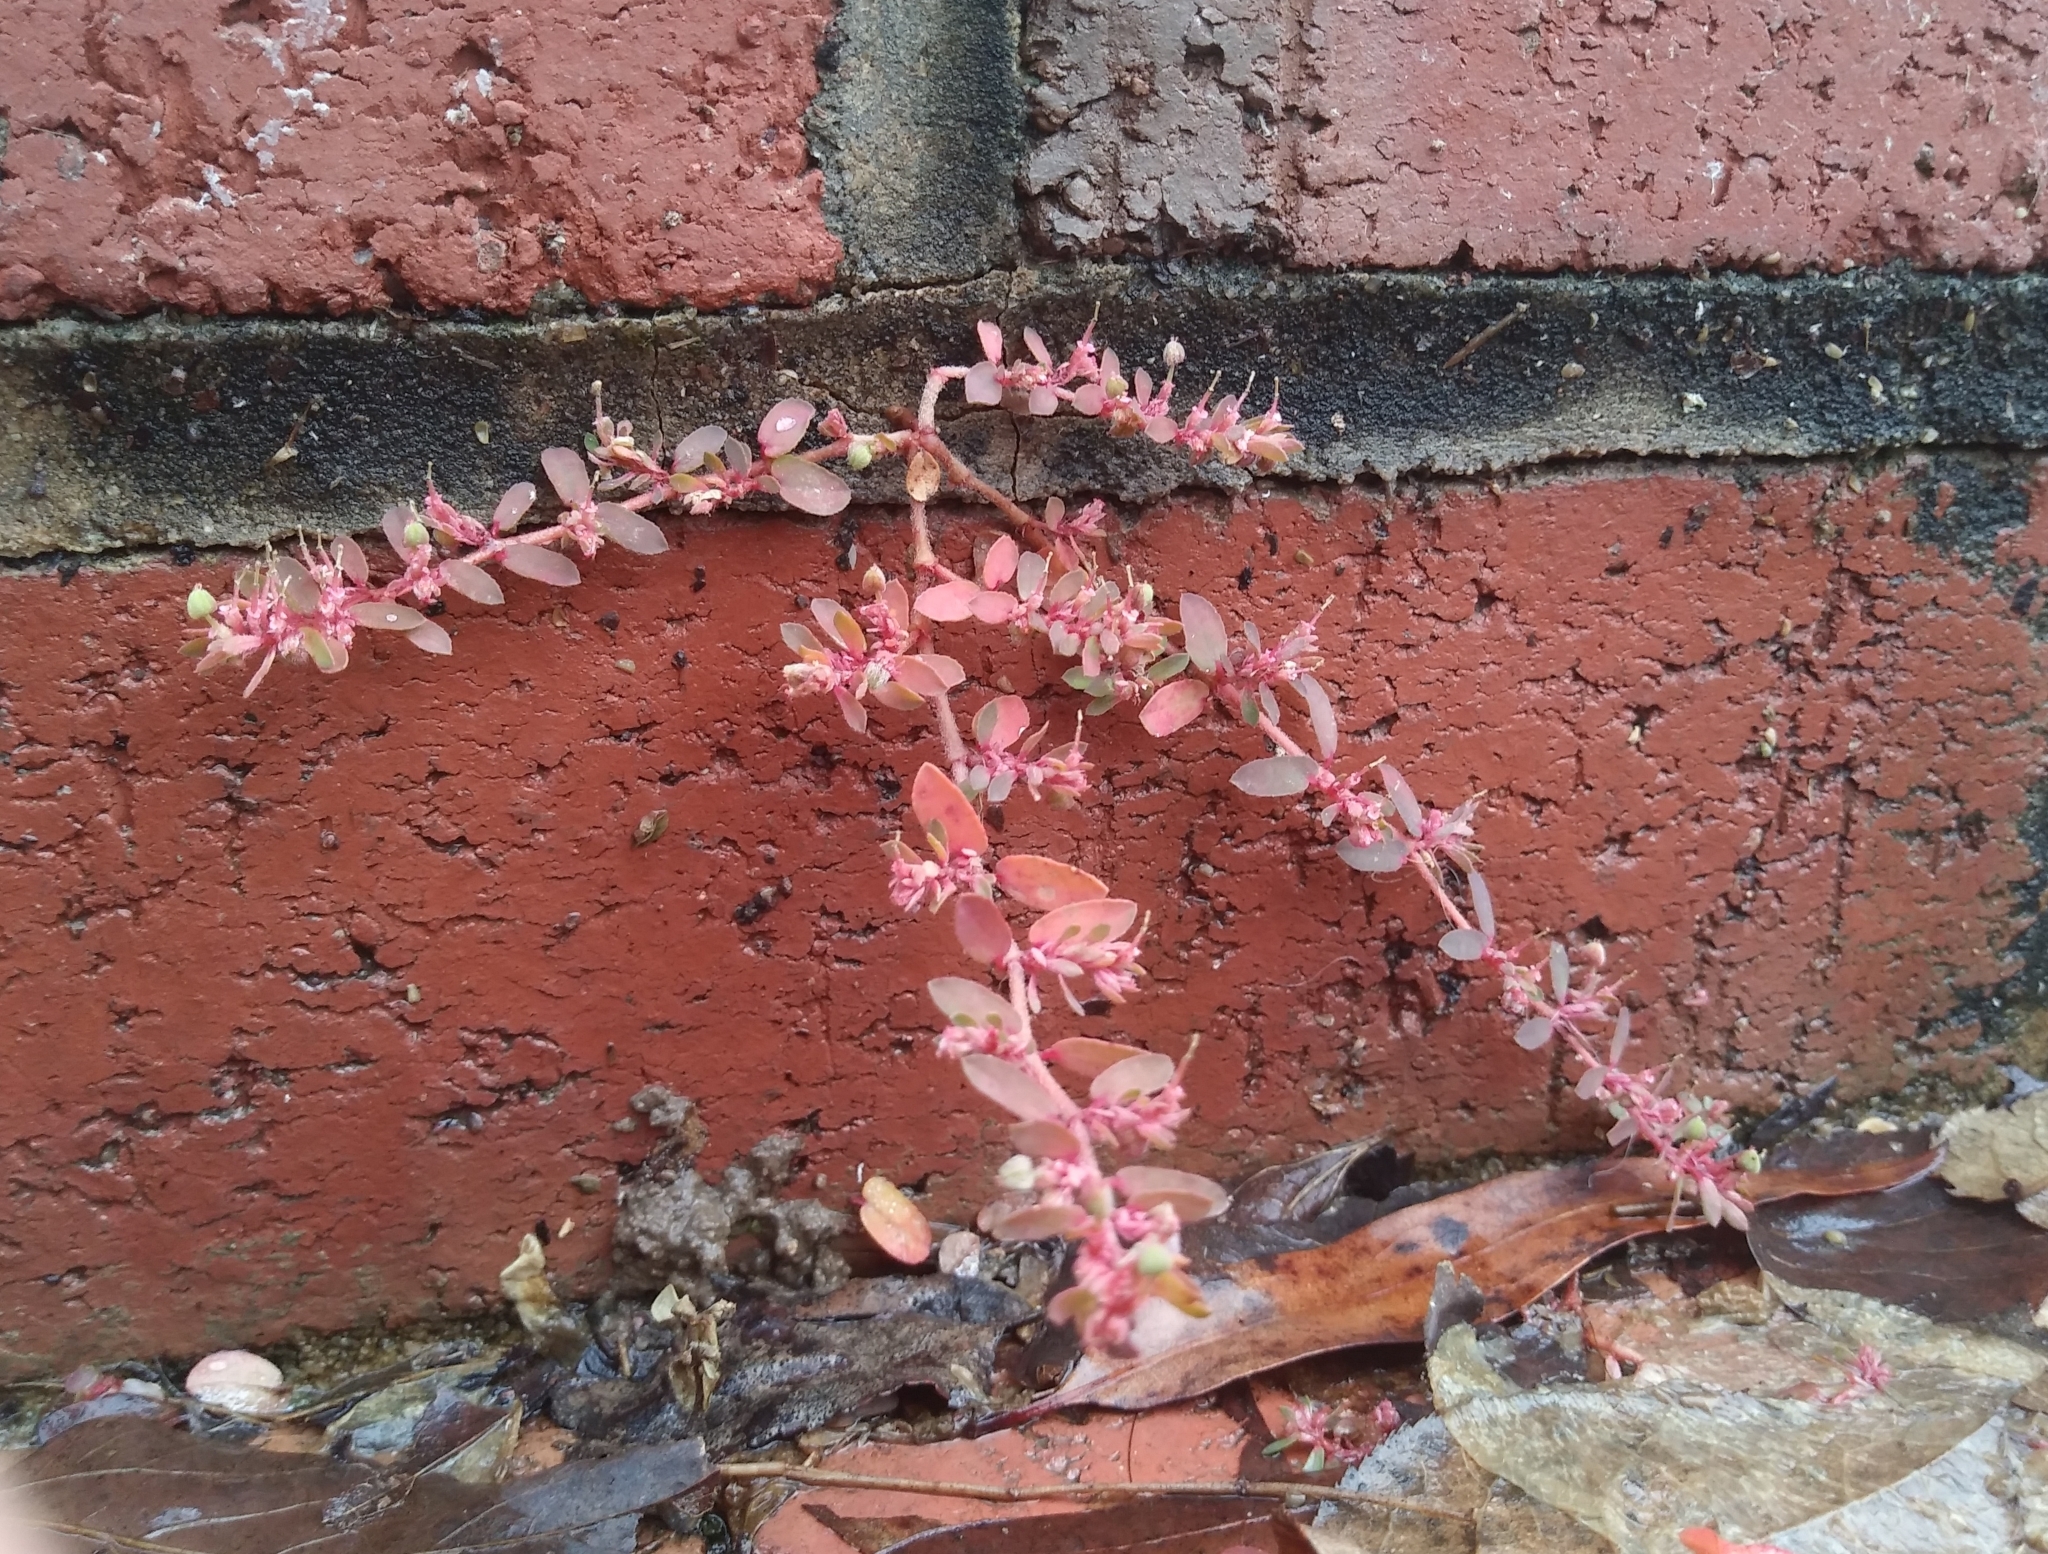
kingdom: Plantae
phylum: Tracheophyta
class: Magnoliopsida
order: Malpighiales
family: Euphorbiaceae
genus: Euphorbia
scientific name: Euphorbia maculata
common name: Spotted spurge
